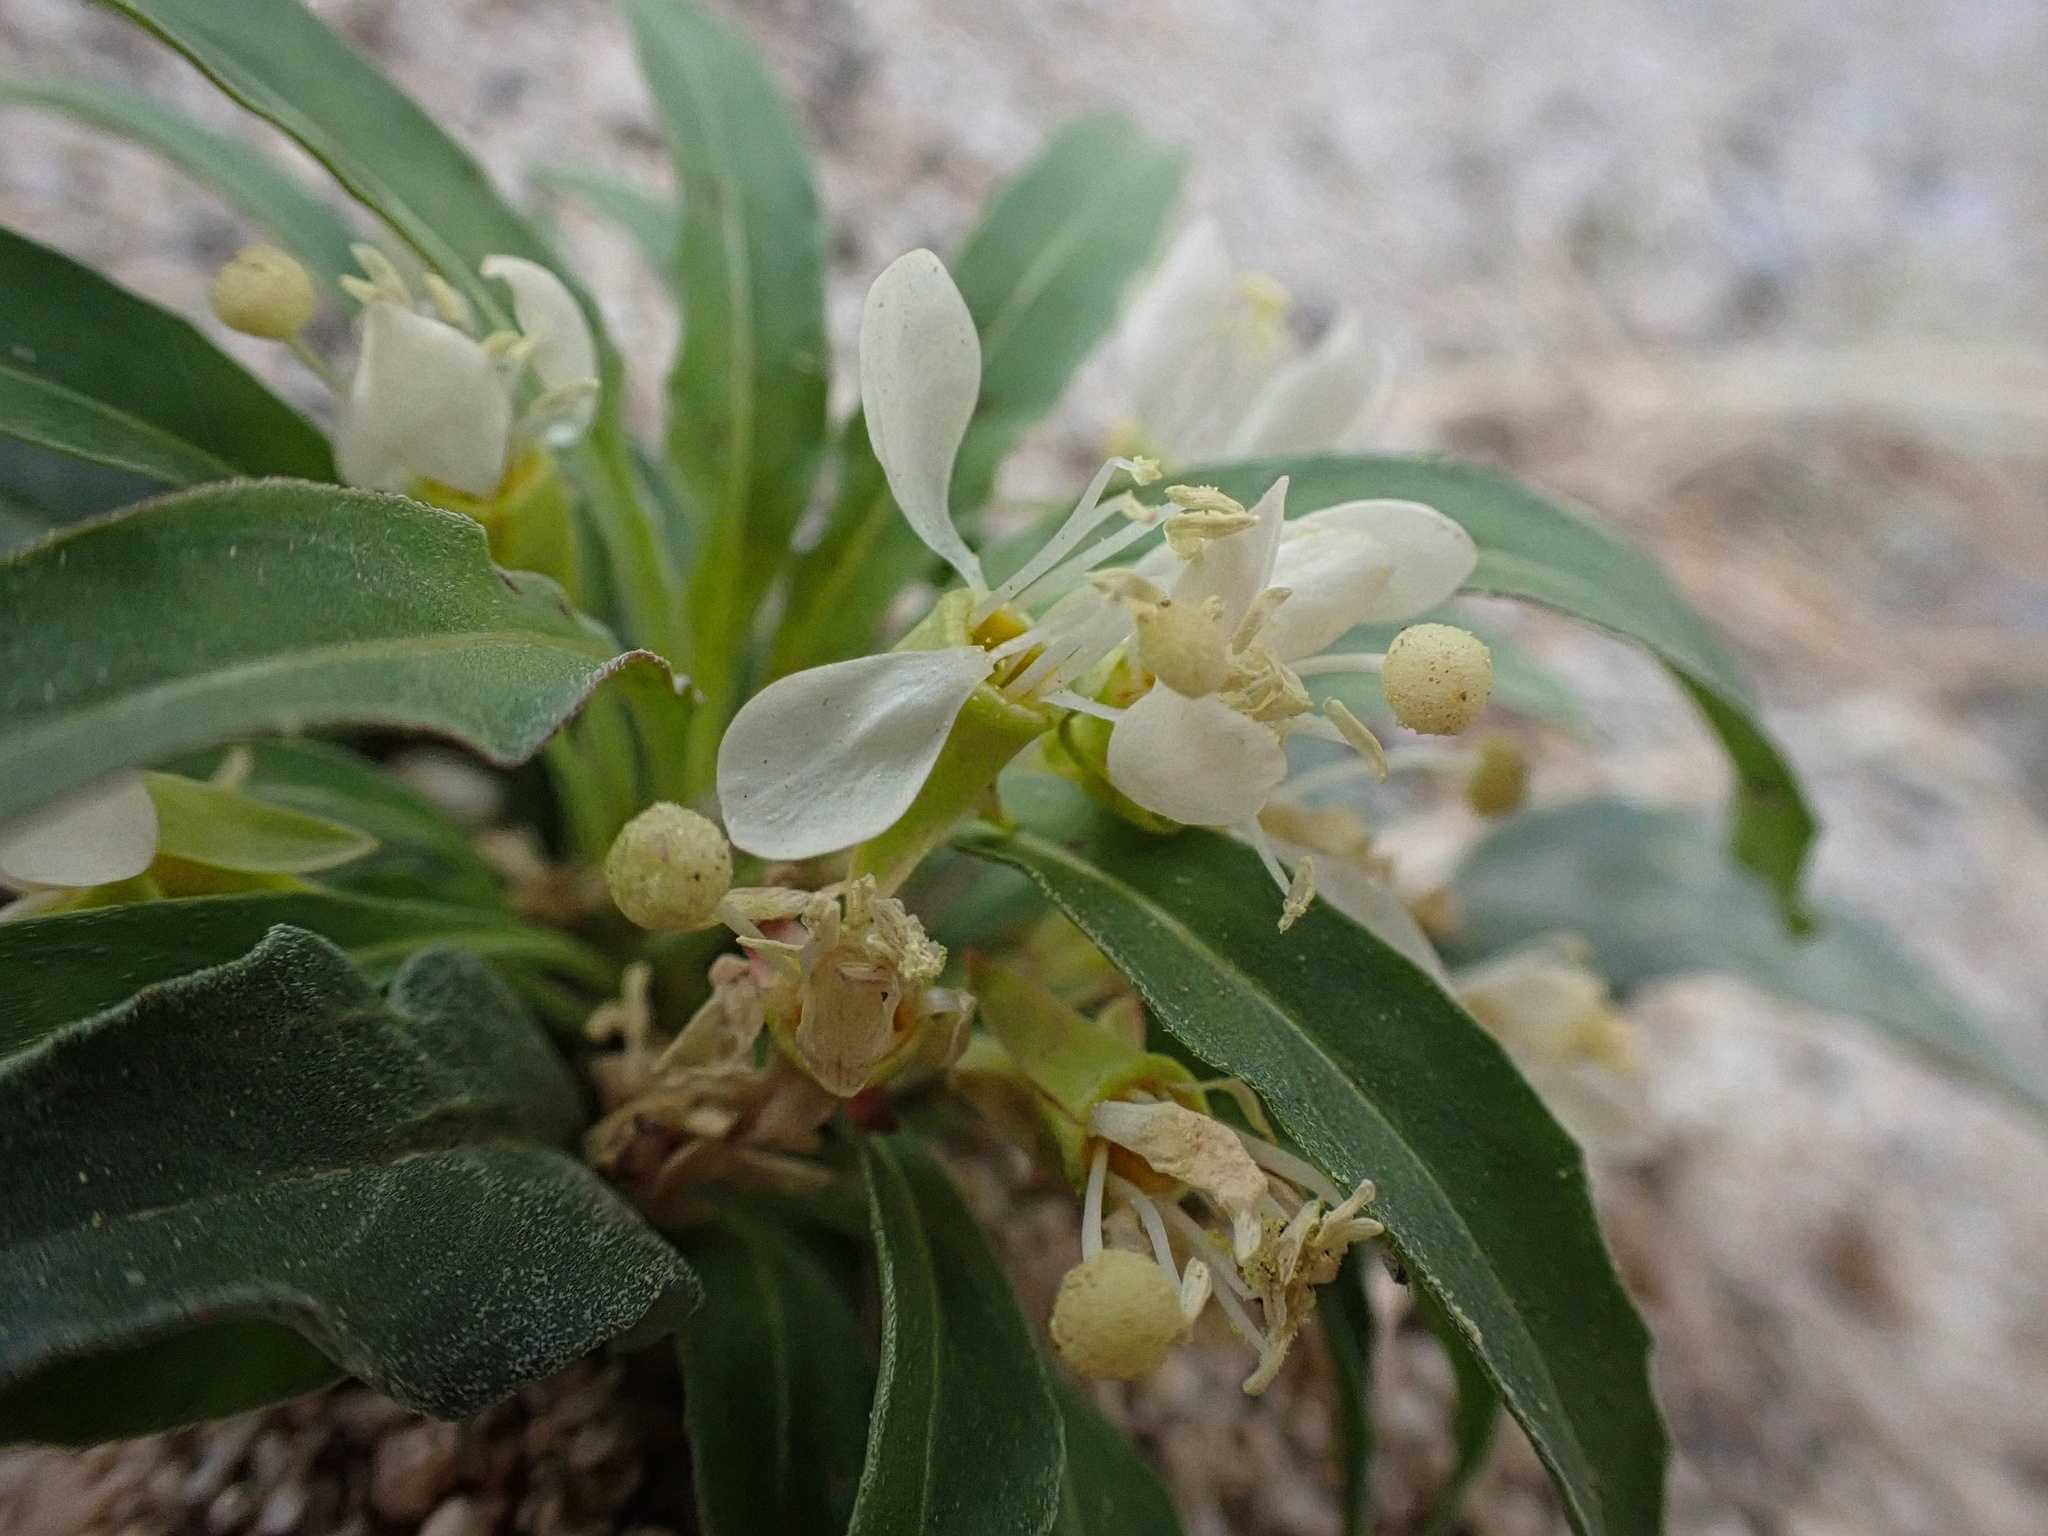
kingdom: Plantae
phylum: Tracheophyta
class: Magnoliopsida
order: Myrtales
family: Onagraceae
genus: Eremothera
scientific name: Eremothera boothii
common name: Booth's evening primrose
